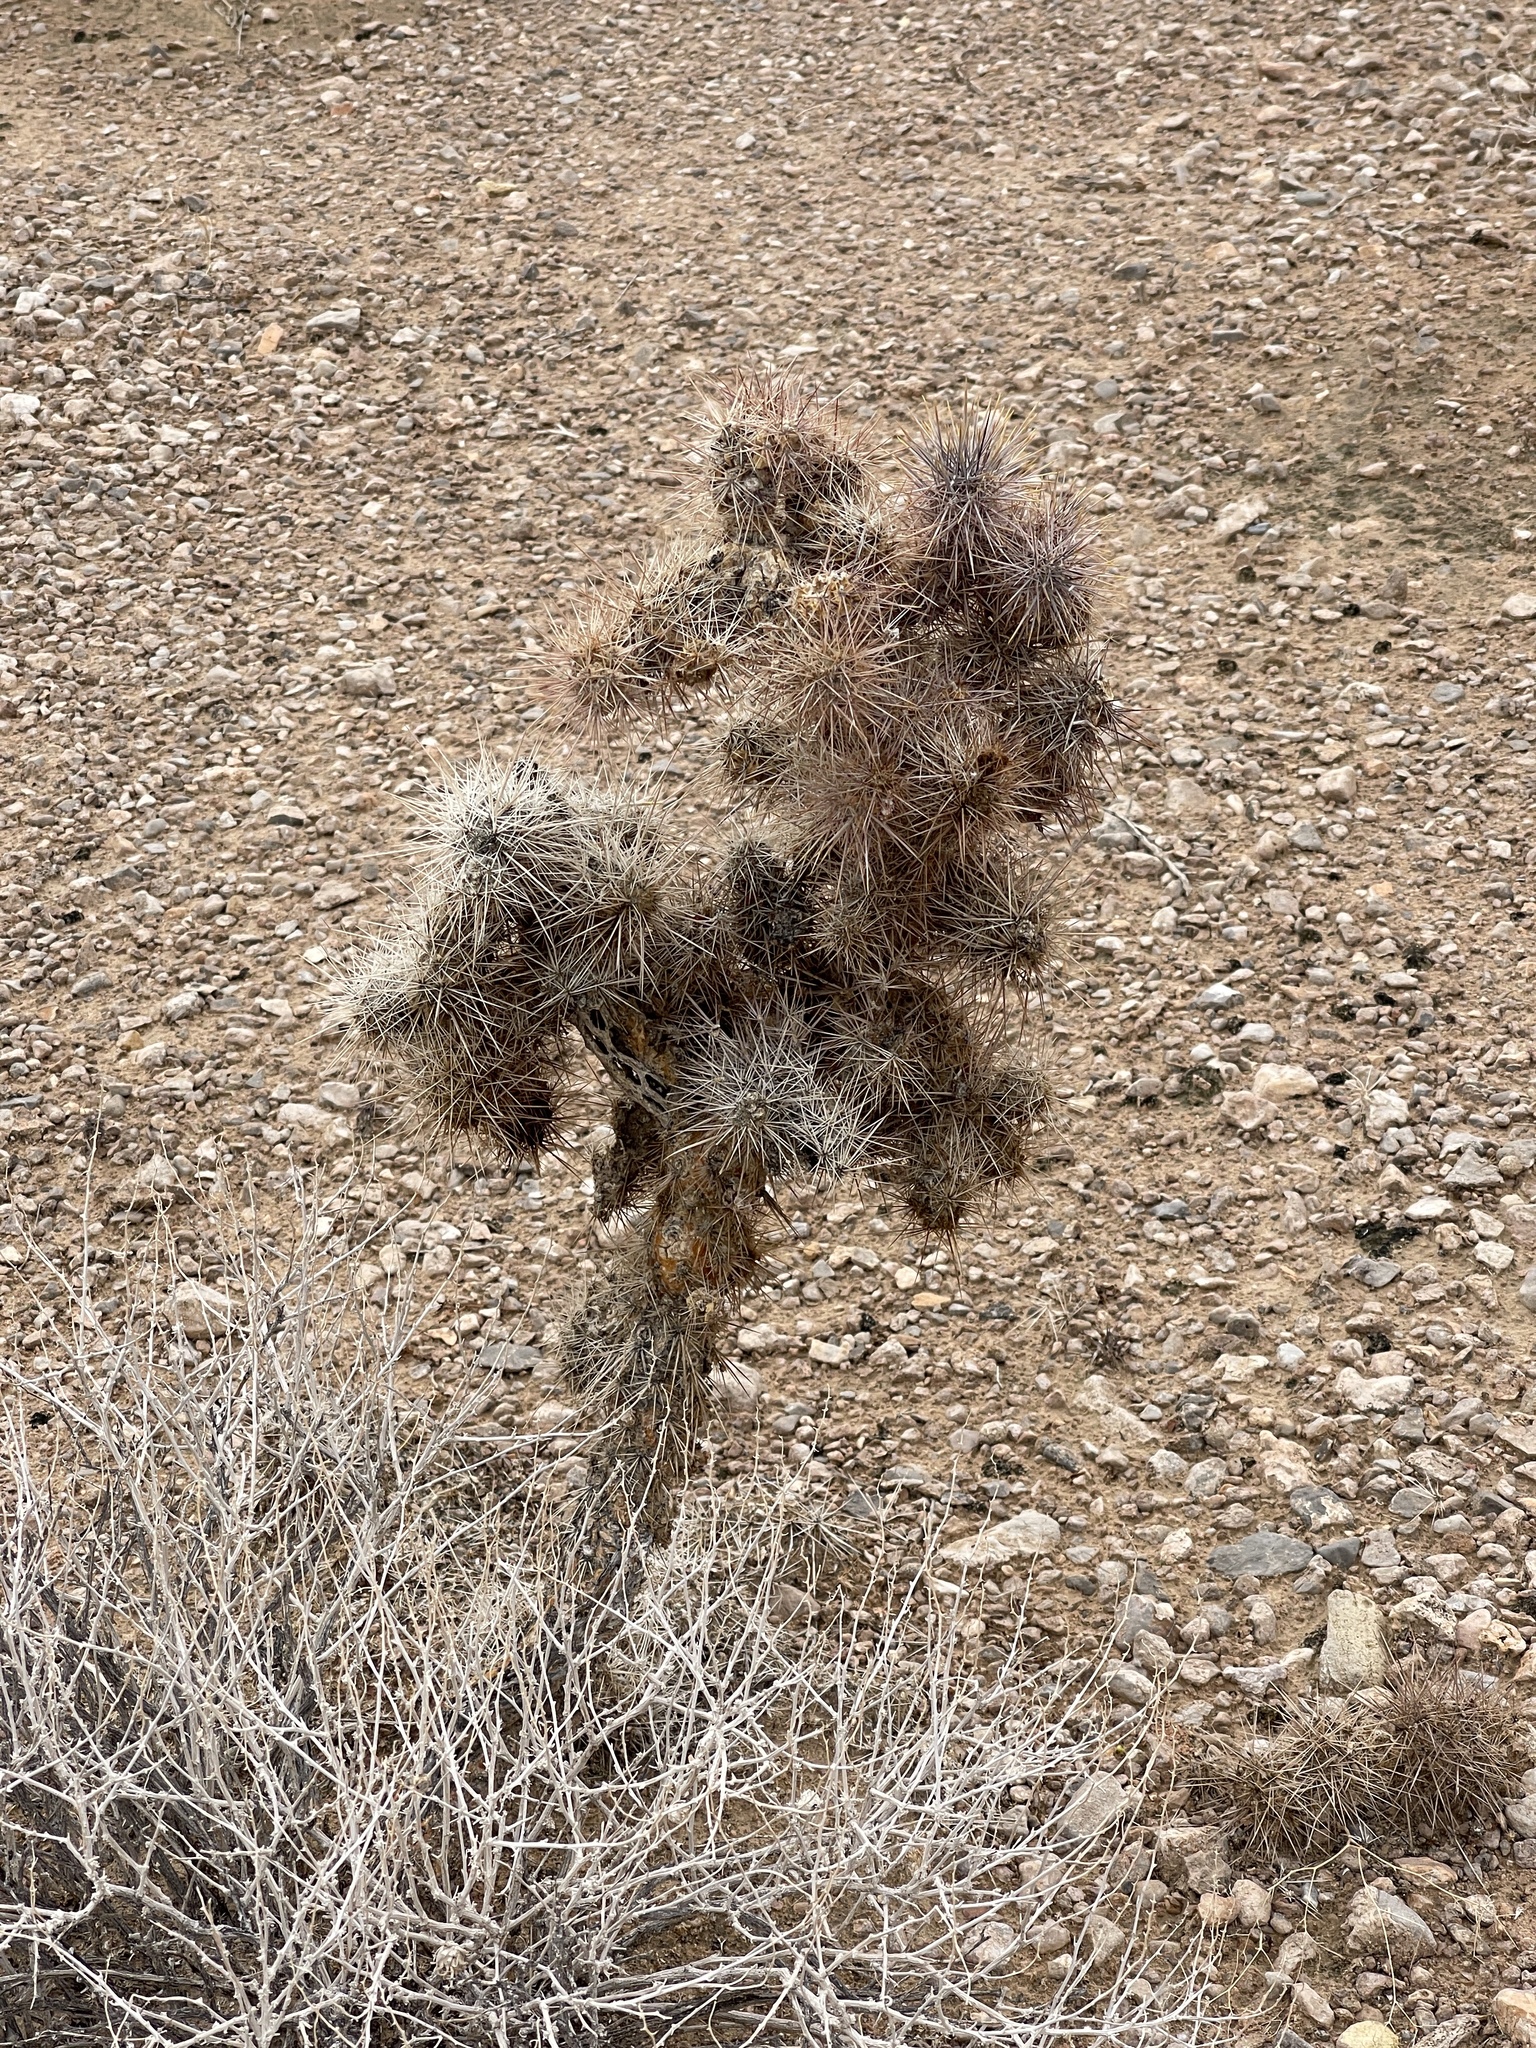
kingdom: Plantae
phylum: Tracheophyta
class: Magnoliopsida
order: Caryophyllales
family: Cactaceae
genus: Cylindropuntia
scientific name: Cylindropuntia echinocarpa
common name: Ground cholla
